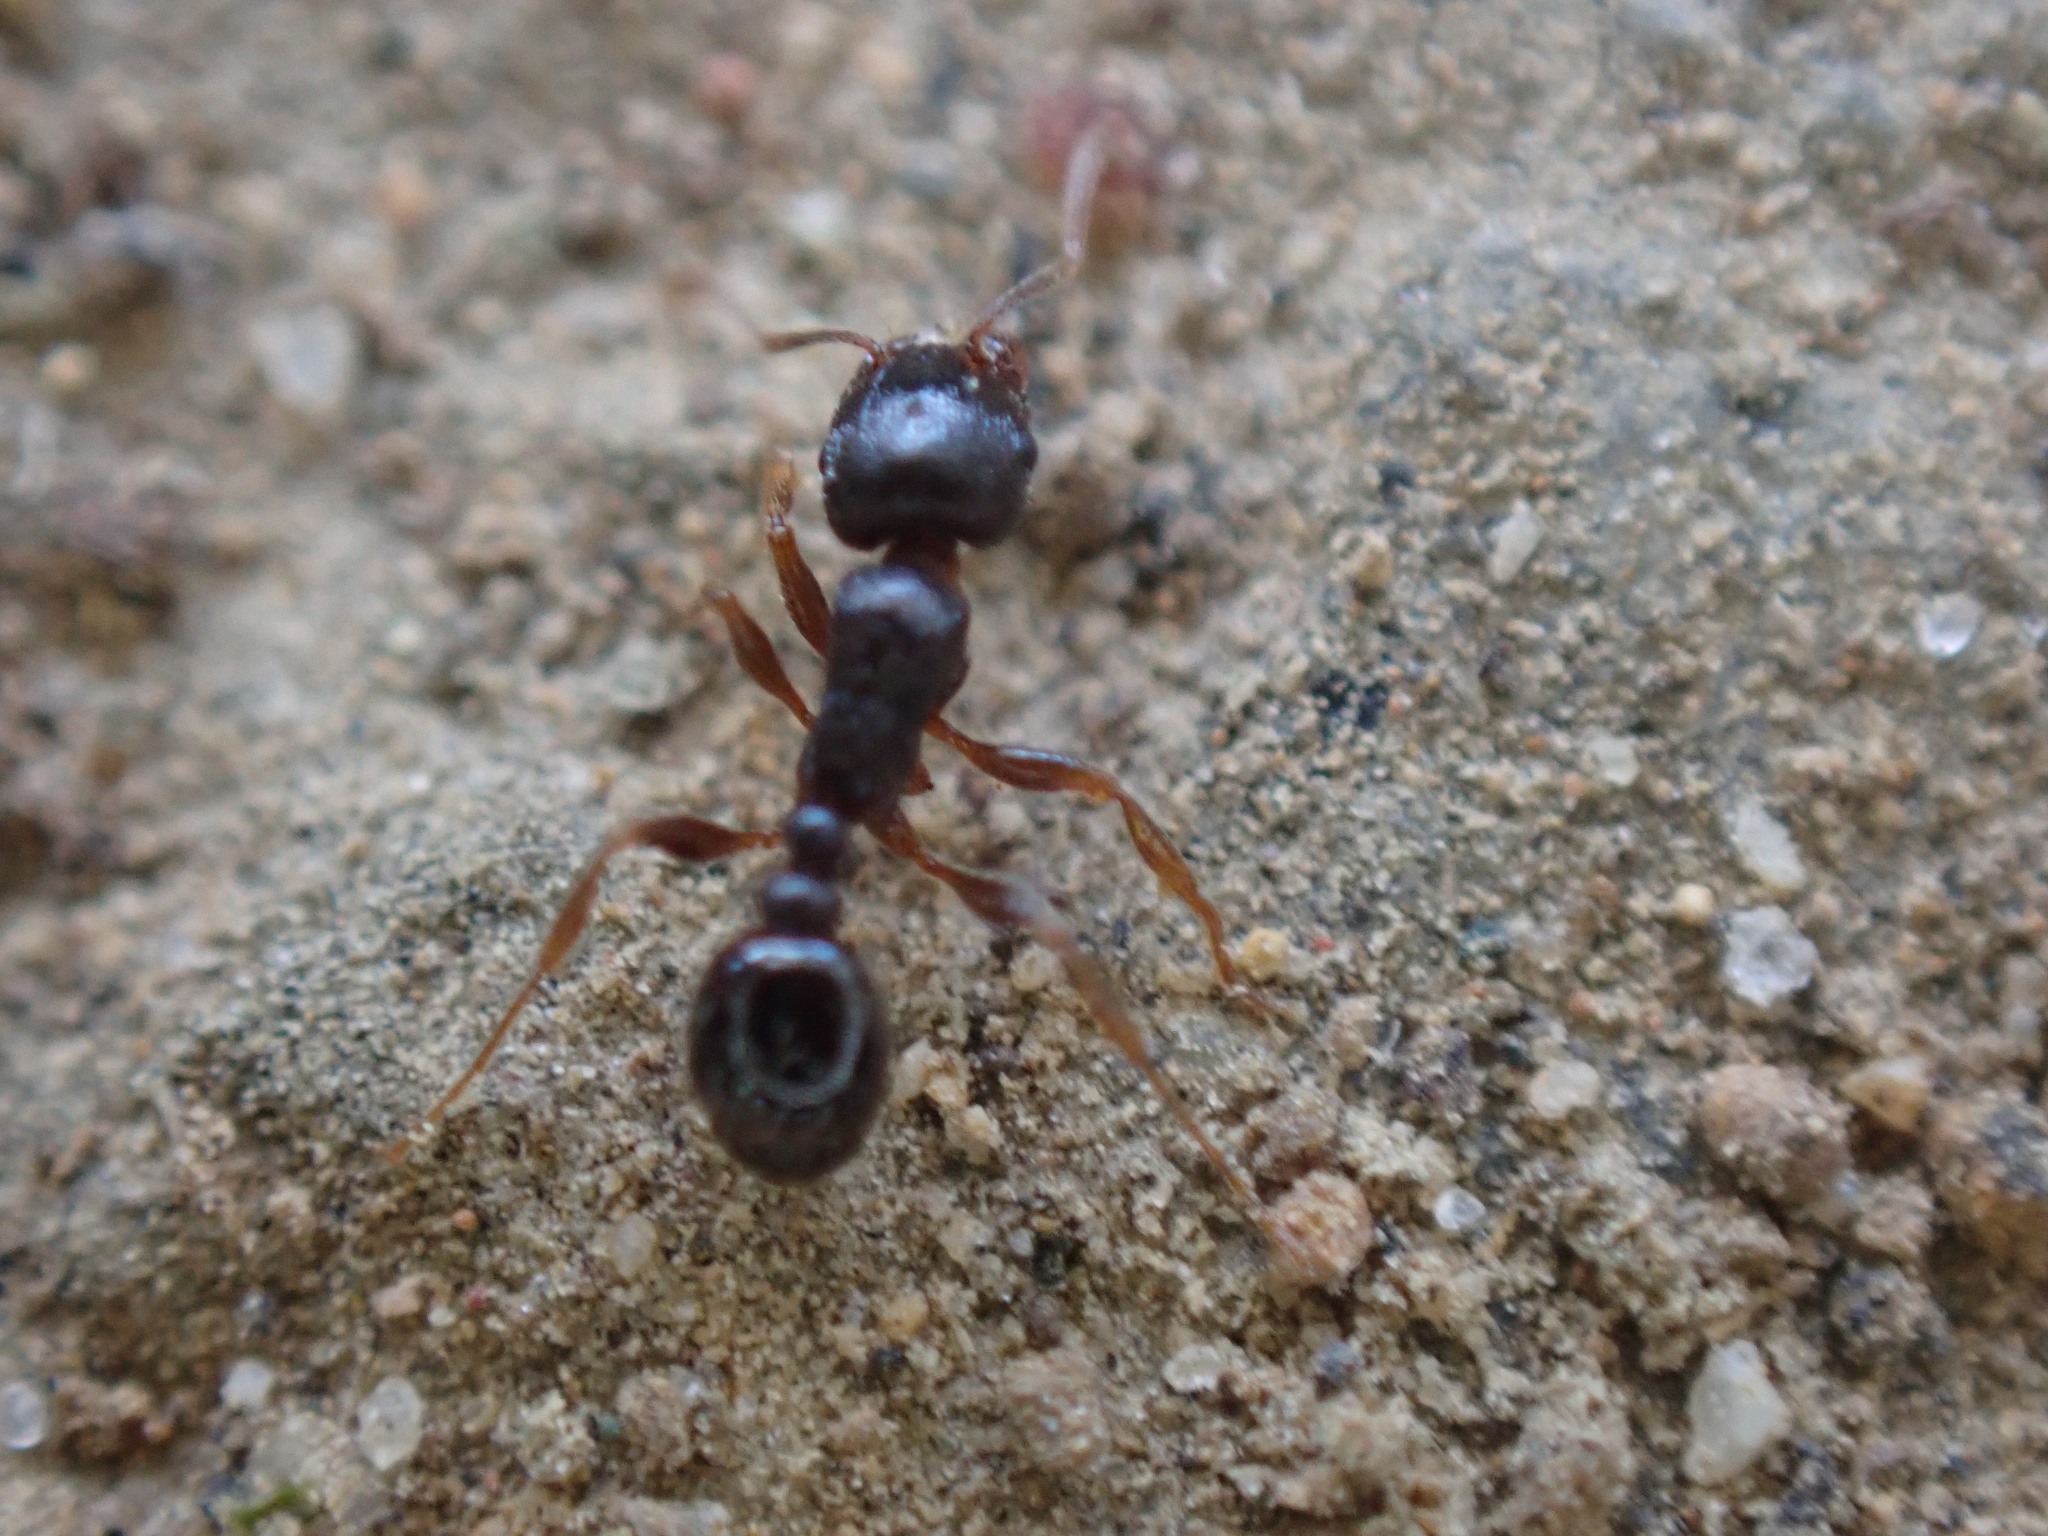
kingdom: Animalia
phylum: Arthropoda
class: Insecta
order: Hymenoptera
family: Formicidae
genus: Tetramorium
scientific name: Tetramorium immigrans
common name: Pavement ant
